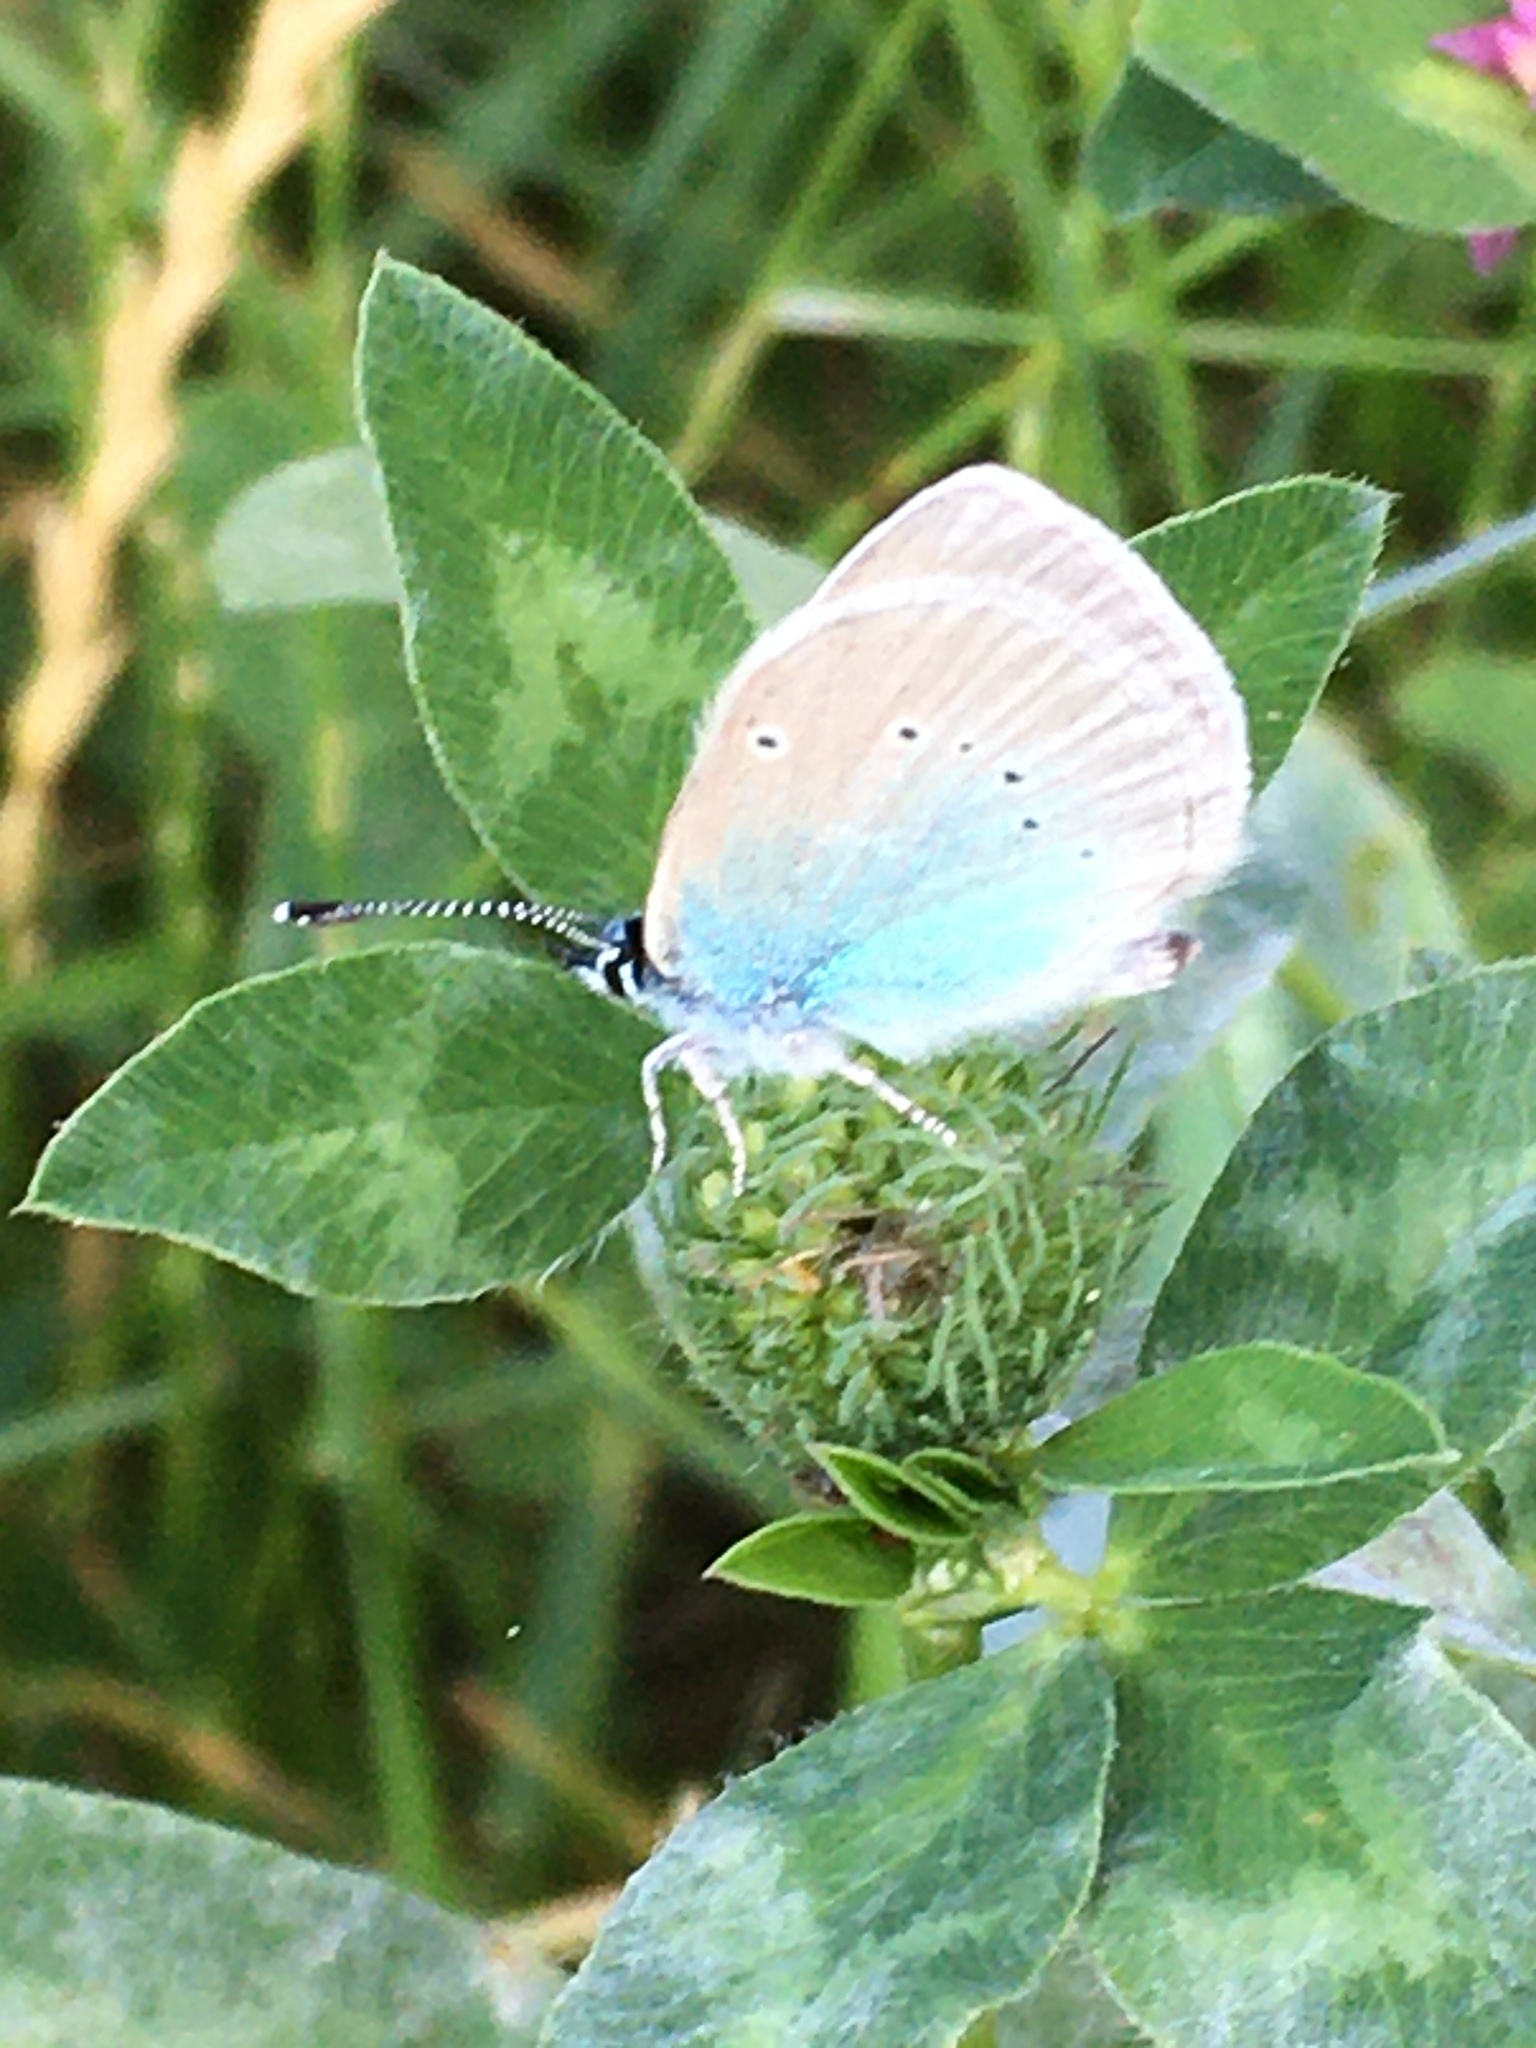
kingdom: Animalia
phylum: Arthropoda
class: Insecta
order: Lepidoptera
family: Lycaenidae
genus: Glaucopsyche
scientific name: Glaucopsyche alexis
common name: Green-underside blue
